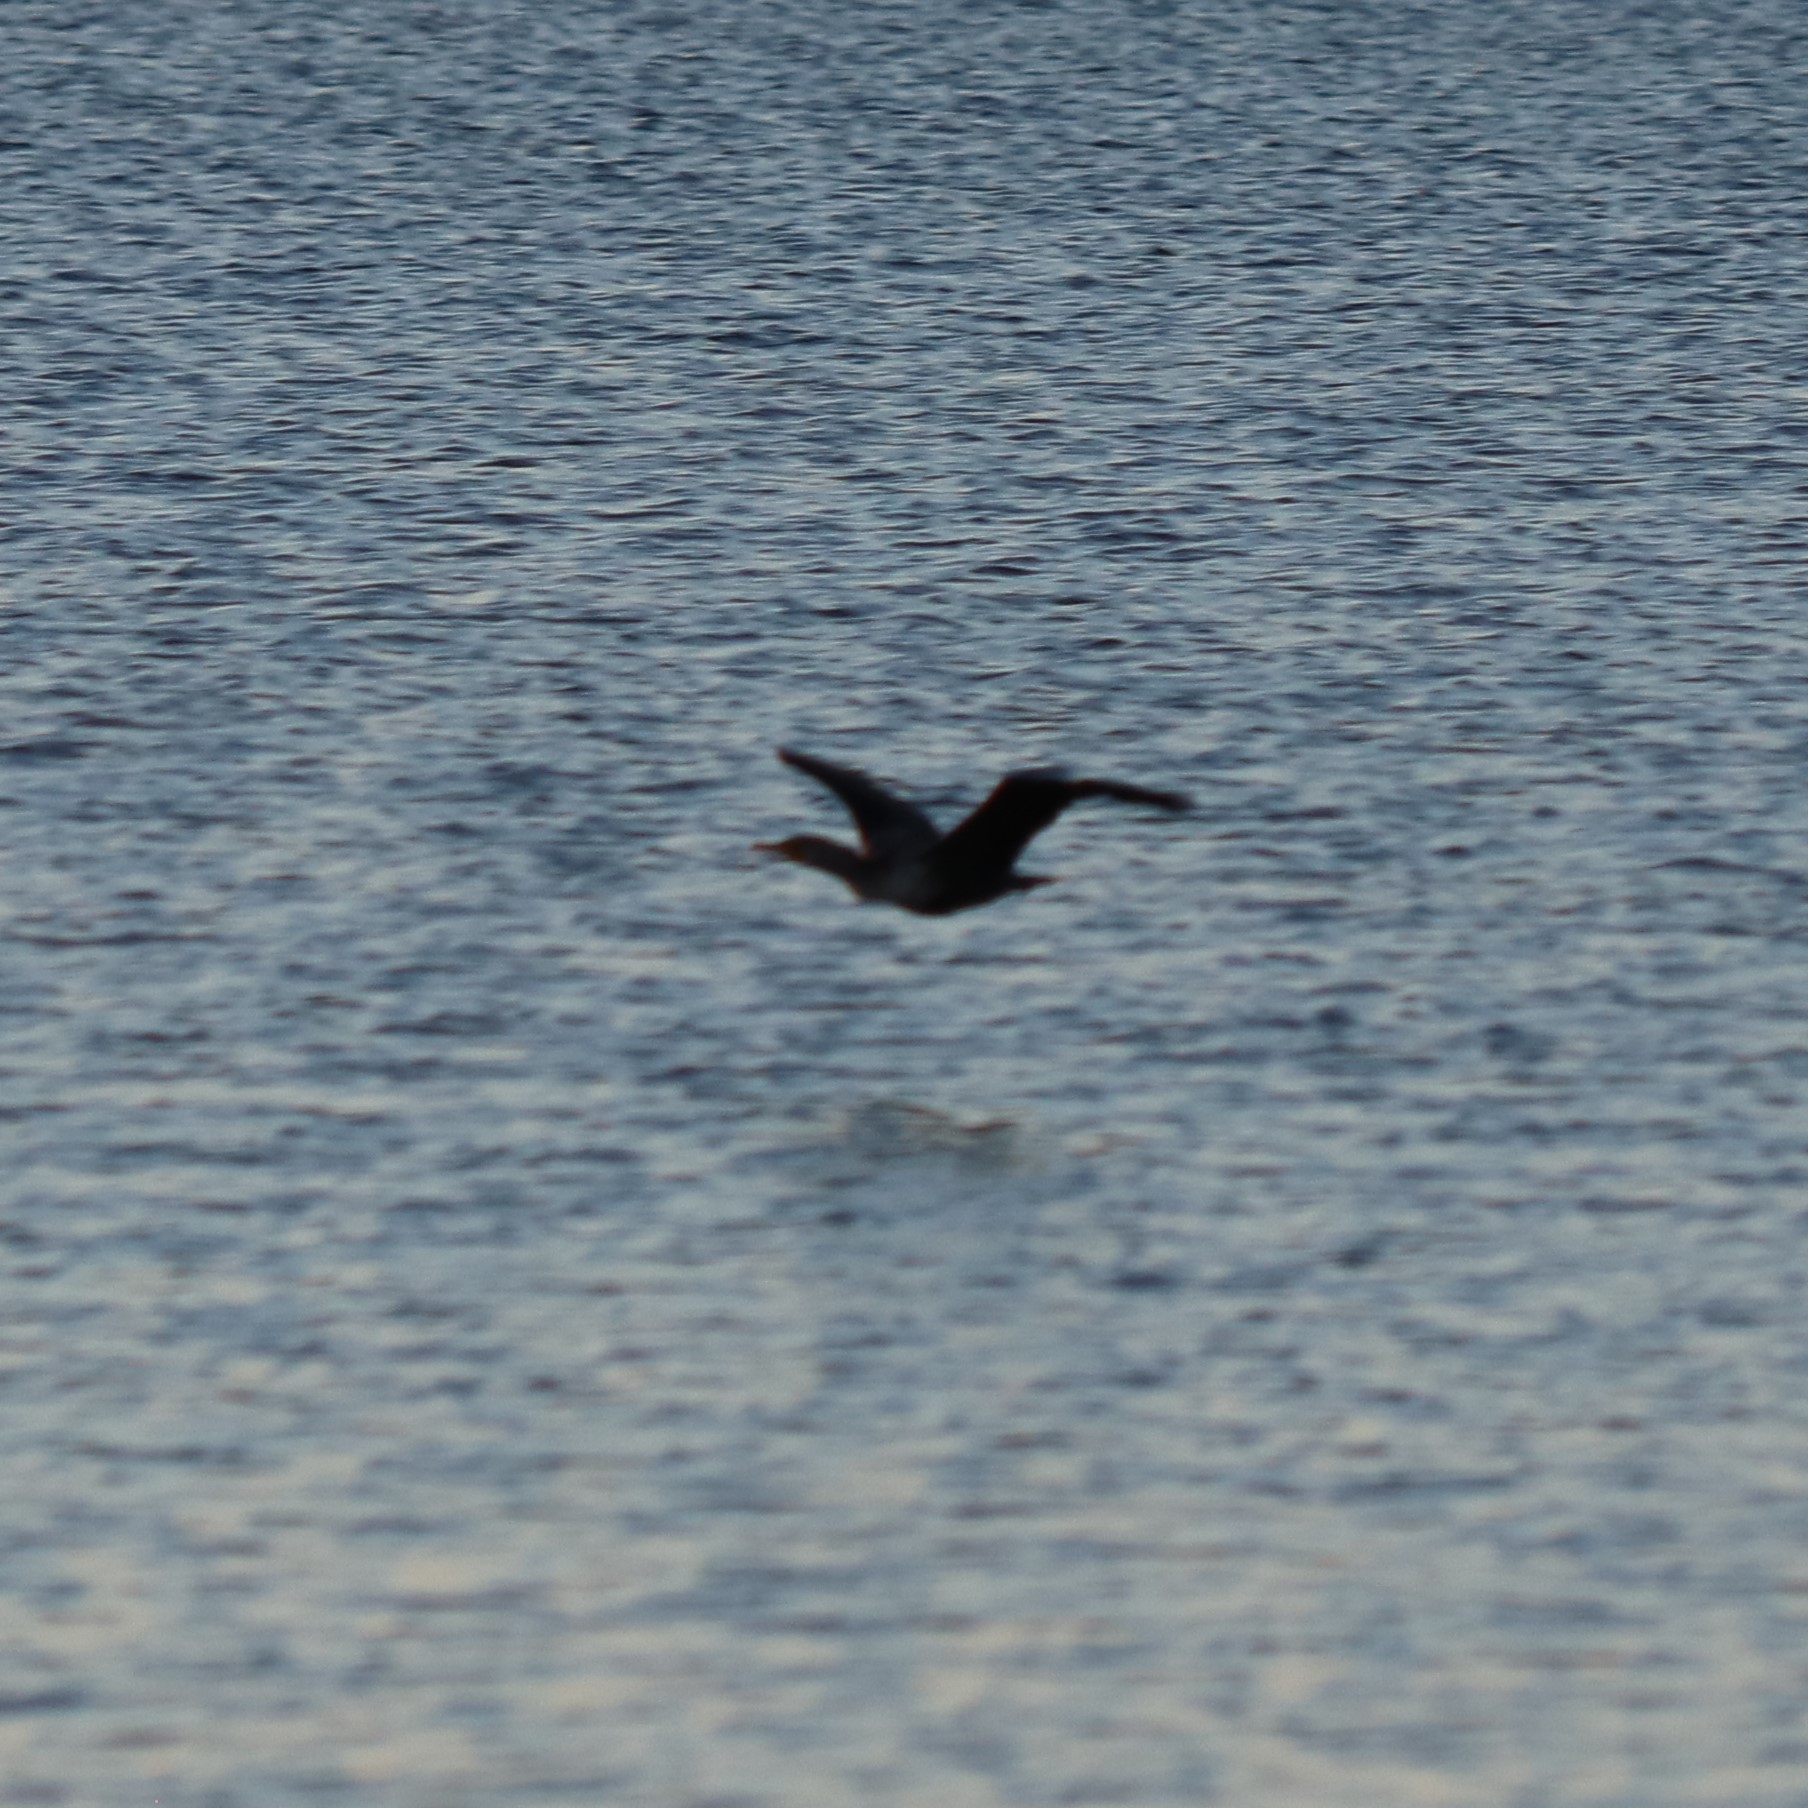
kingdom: Animalia
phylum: Chordata
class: Aves
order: Suliformes
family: Phalacrocoracidae
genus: Phalacrocorax
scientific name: Phalacrocorax auritus
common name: Double-crested cormorant
